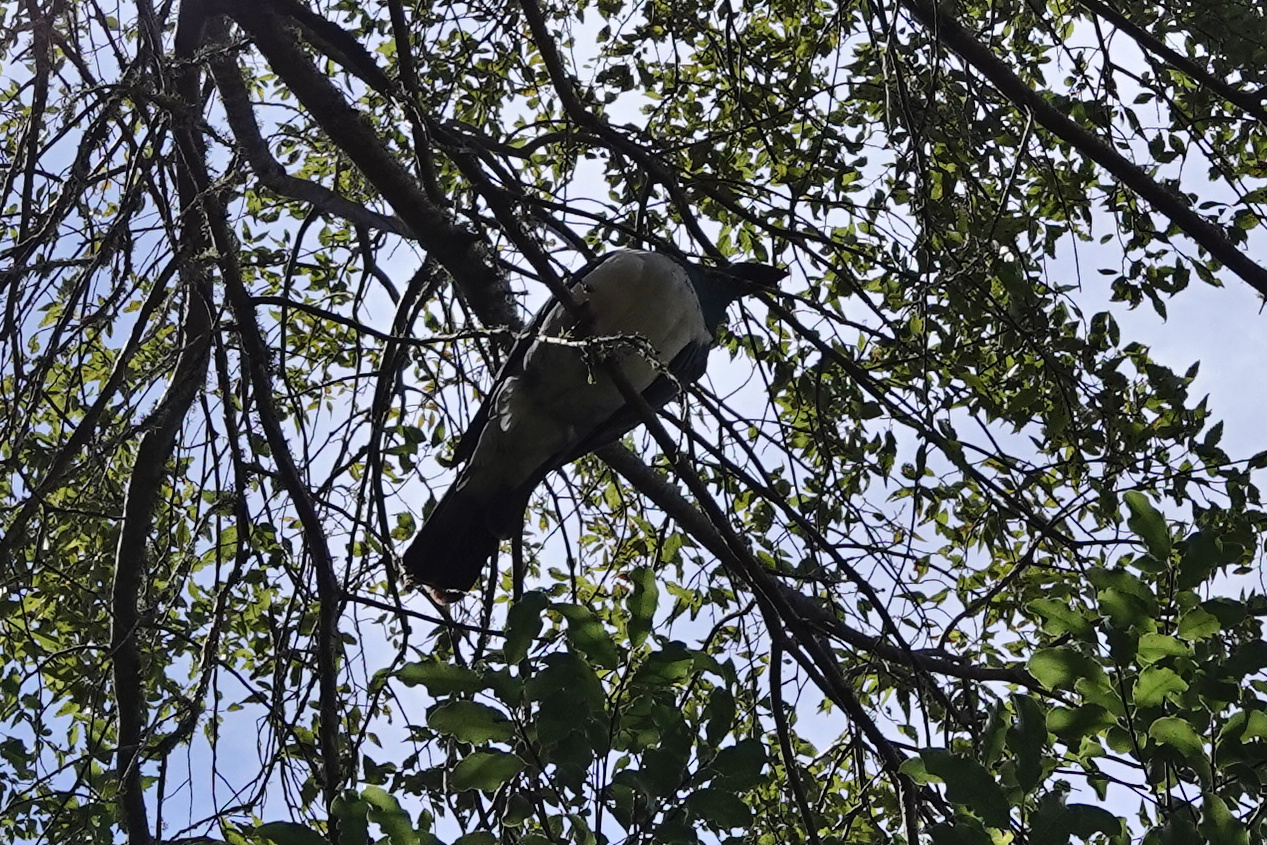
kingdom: Animalia
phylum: Chordata
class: Aves
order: Columbiformes
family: Columbidae
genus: Hemiphaga
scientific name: Hemiphaga novaeseelandiae
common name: New zealand pigeon
